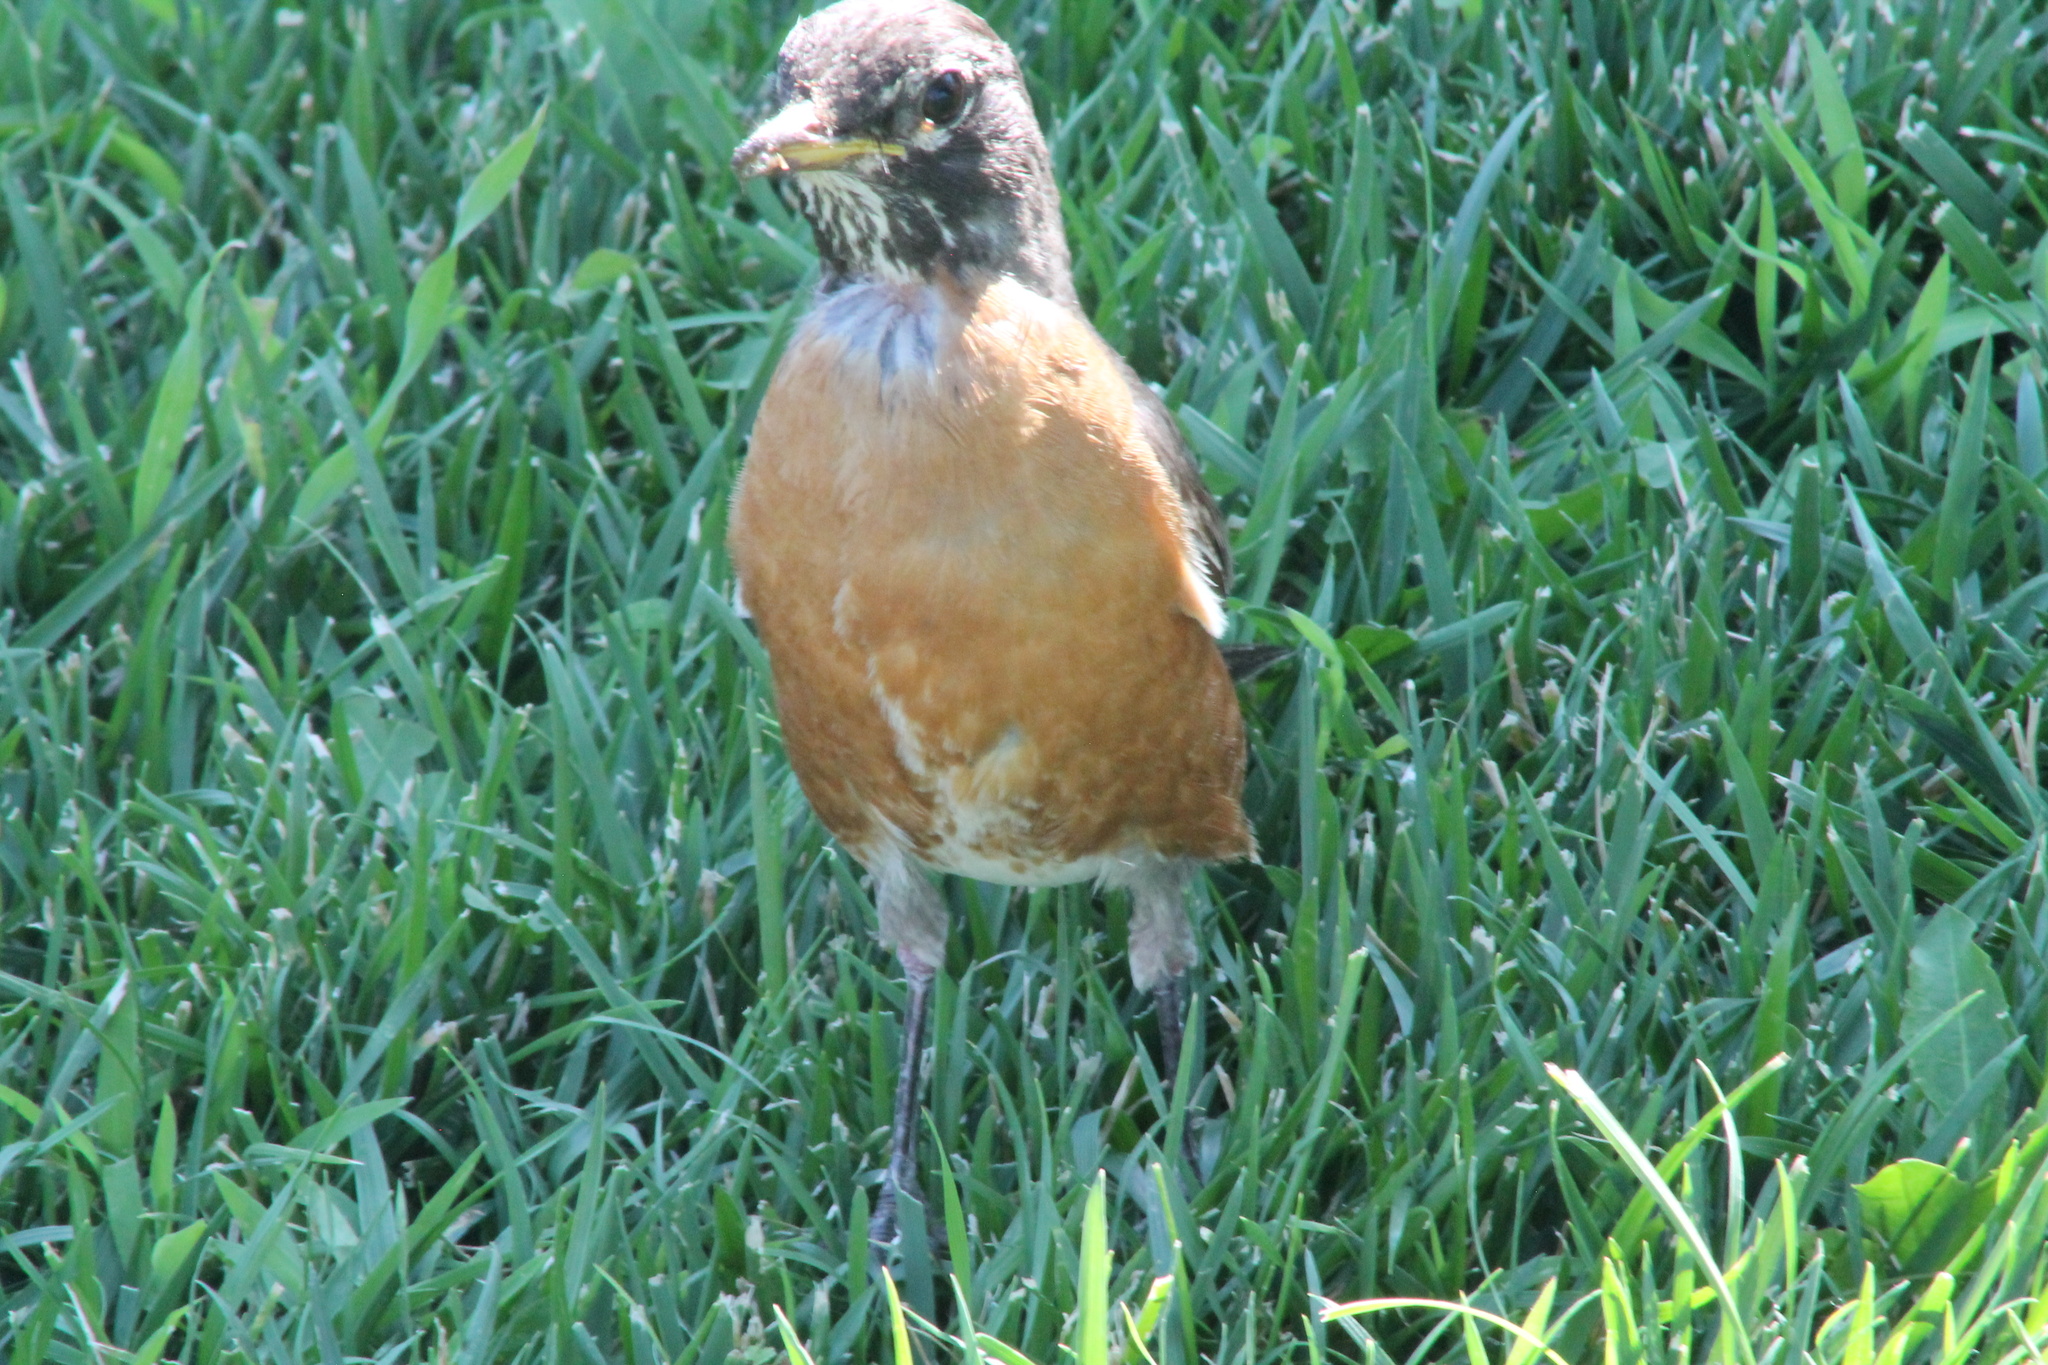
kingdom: Animalia
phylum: Chordata
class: Aves
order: Passeriformes
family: Turdidae
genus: Turdus
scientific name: Turdus migratorius
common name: American robin
